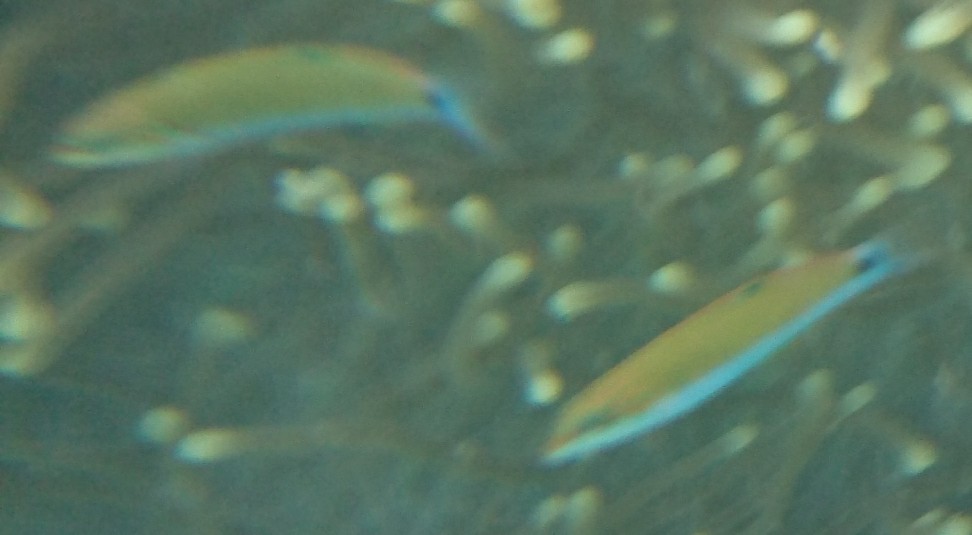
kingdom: Animalia
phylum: Chordata
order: Perciformes
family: Labridae
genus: Thalassoma
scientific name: Thalassoma lunare
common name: Blue wrasse
